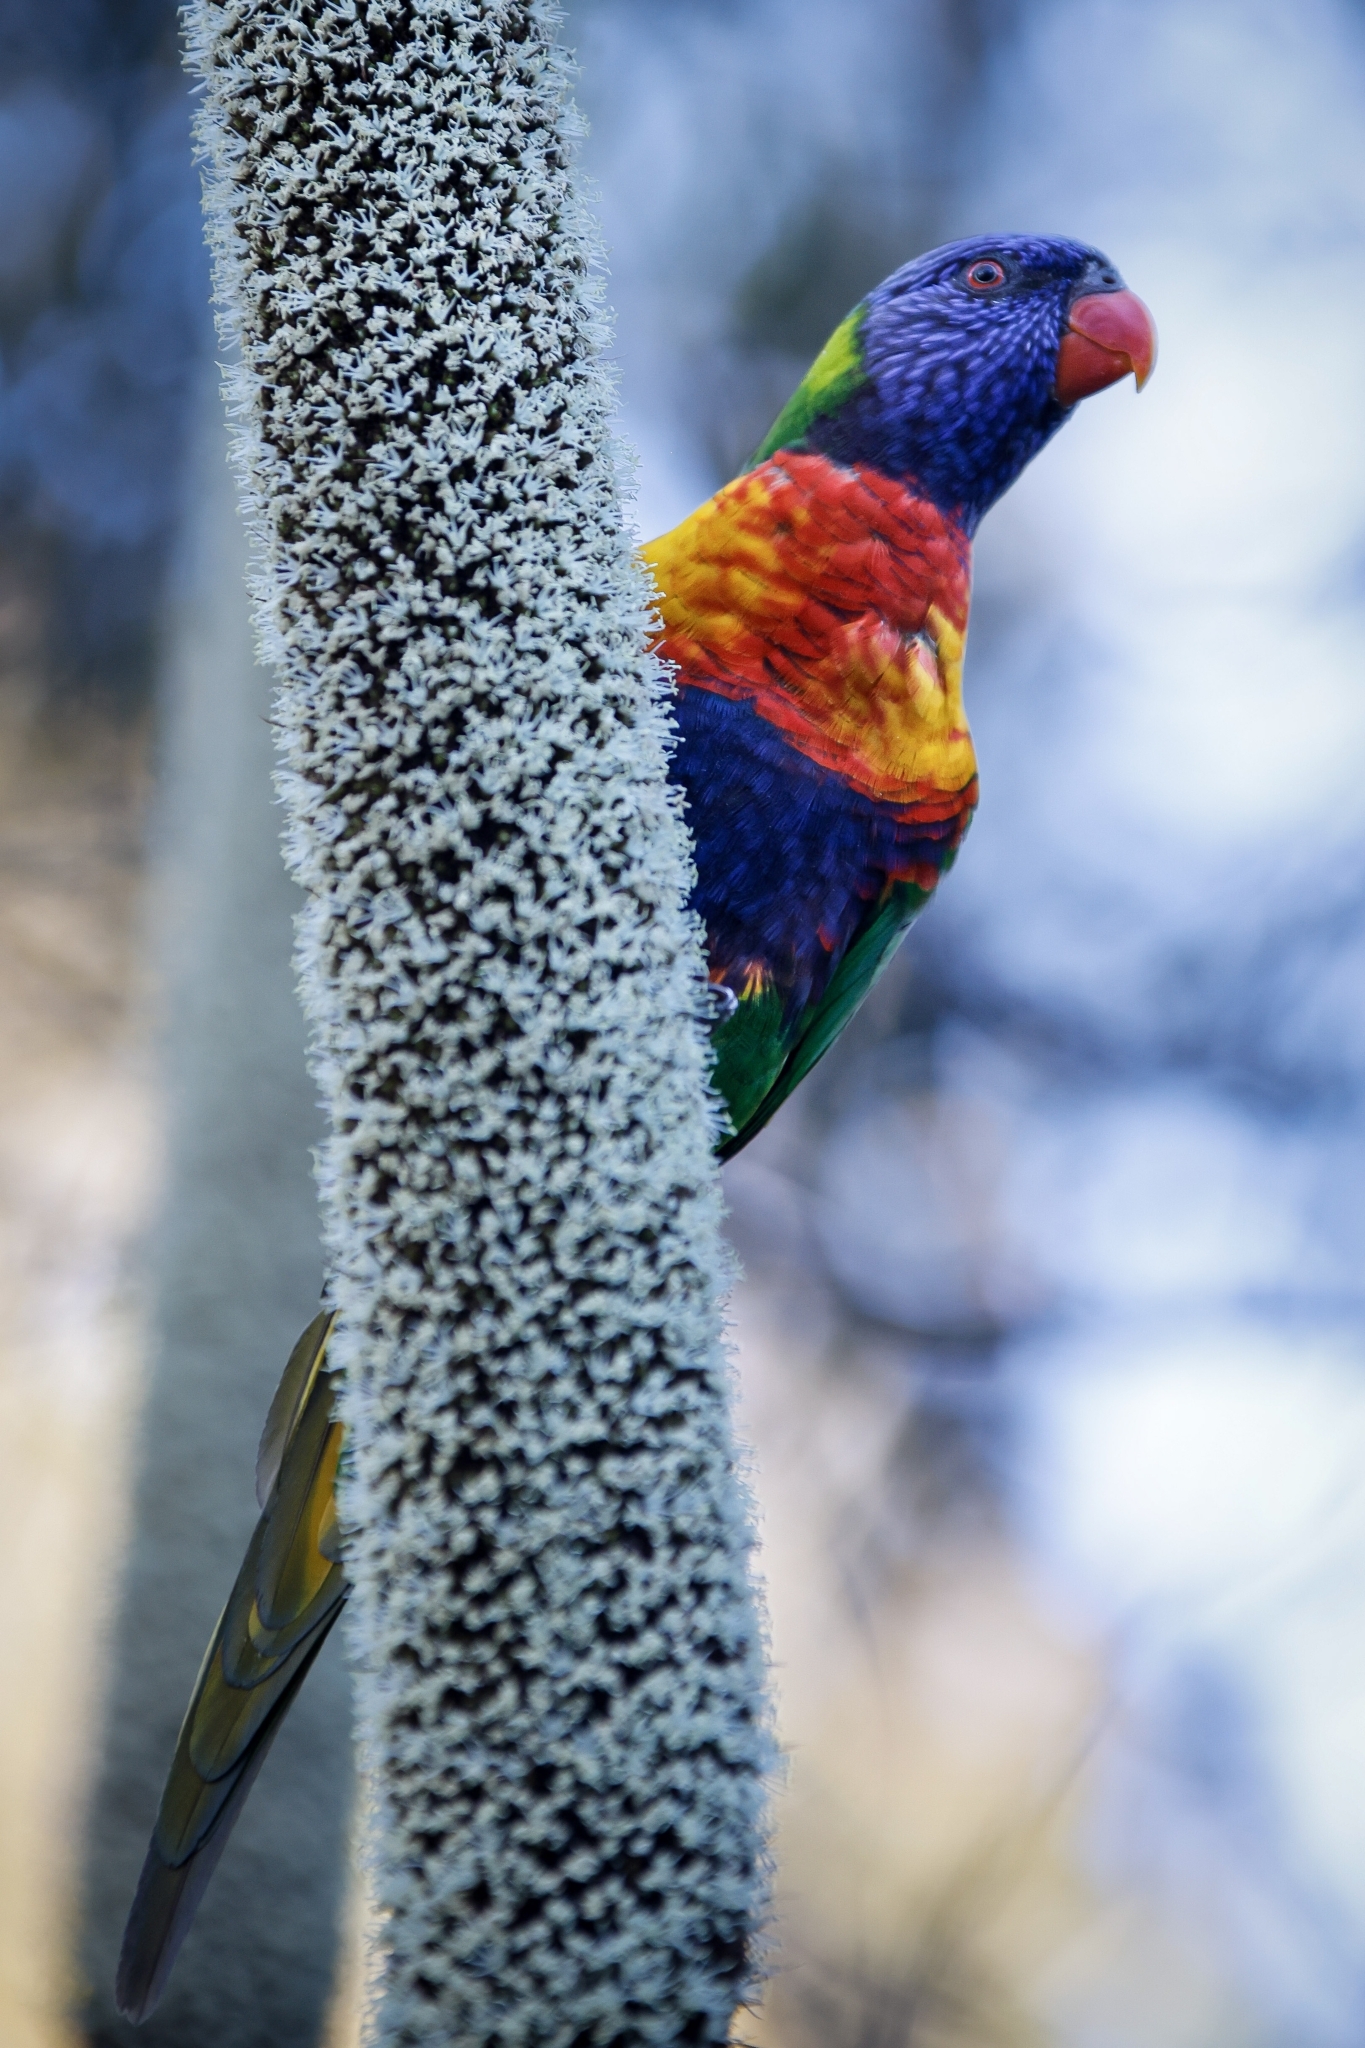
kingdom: Animalia
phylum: Chordata
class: Aves
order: Psittaciformes
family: Psittacidae
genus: Trichoglossus
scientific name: Trichoglossus haematodus
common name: Coconut lorikeet
